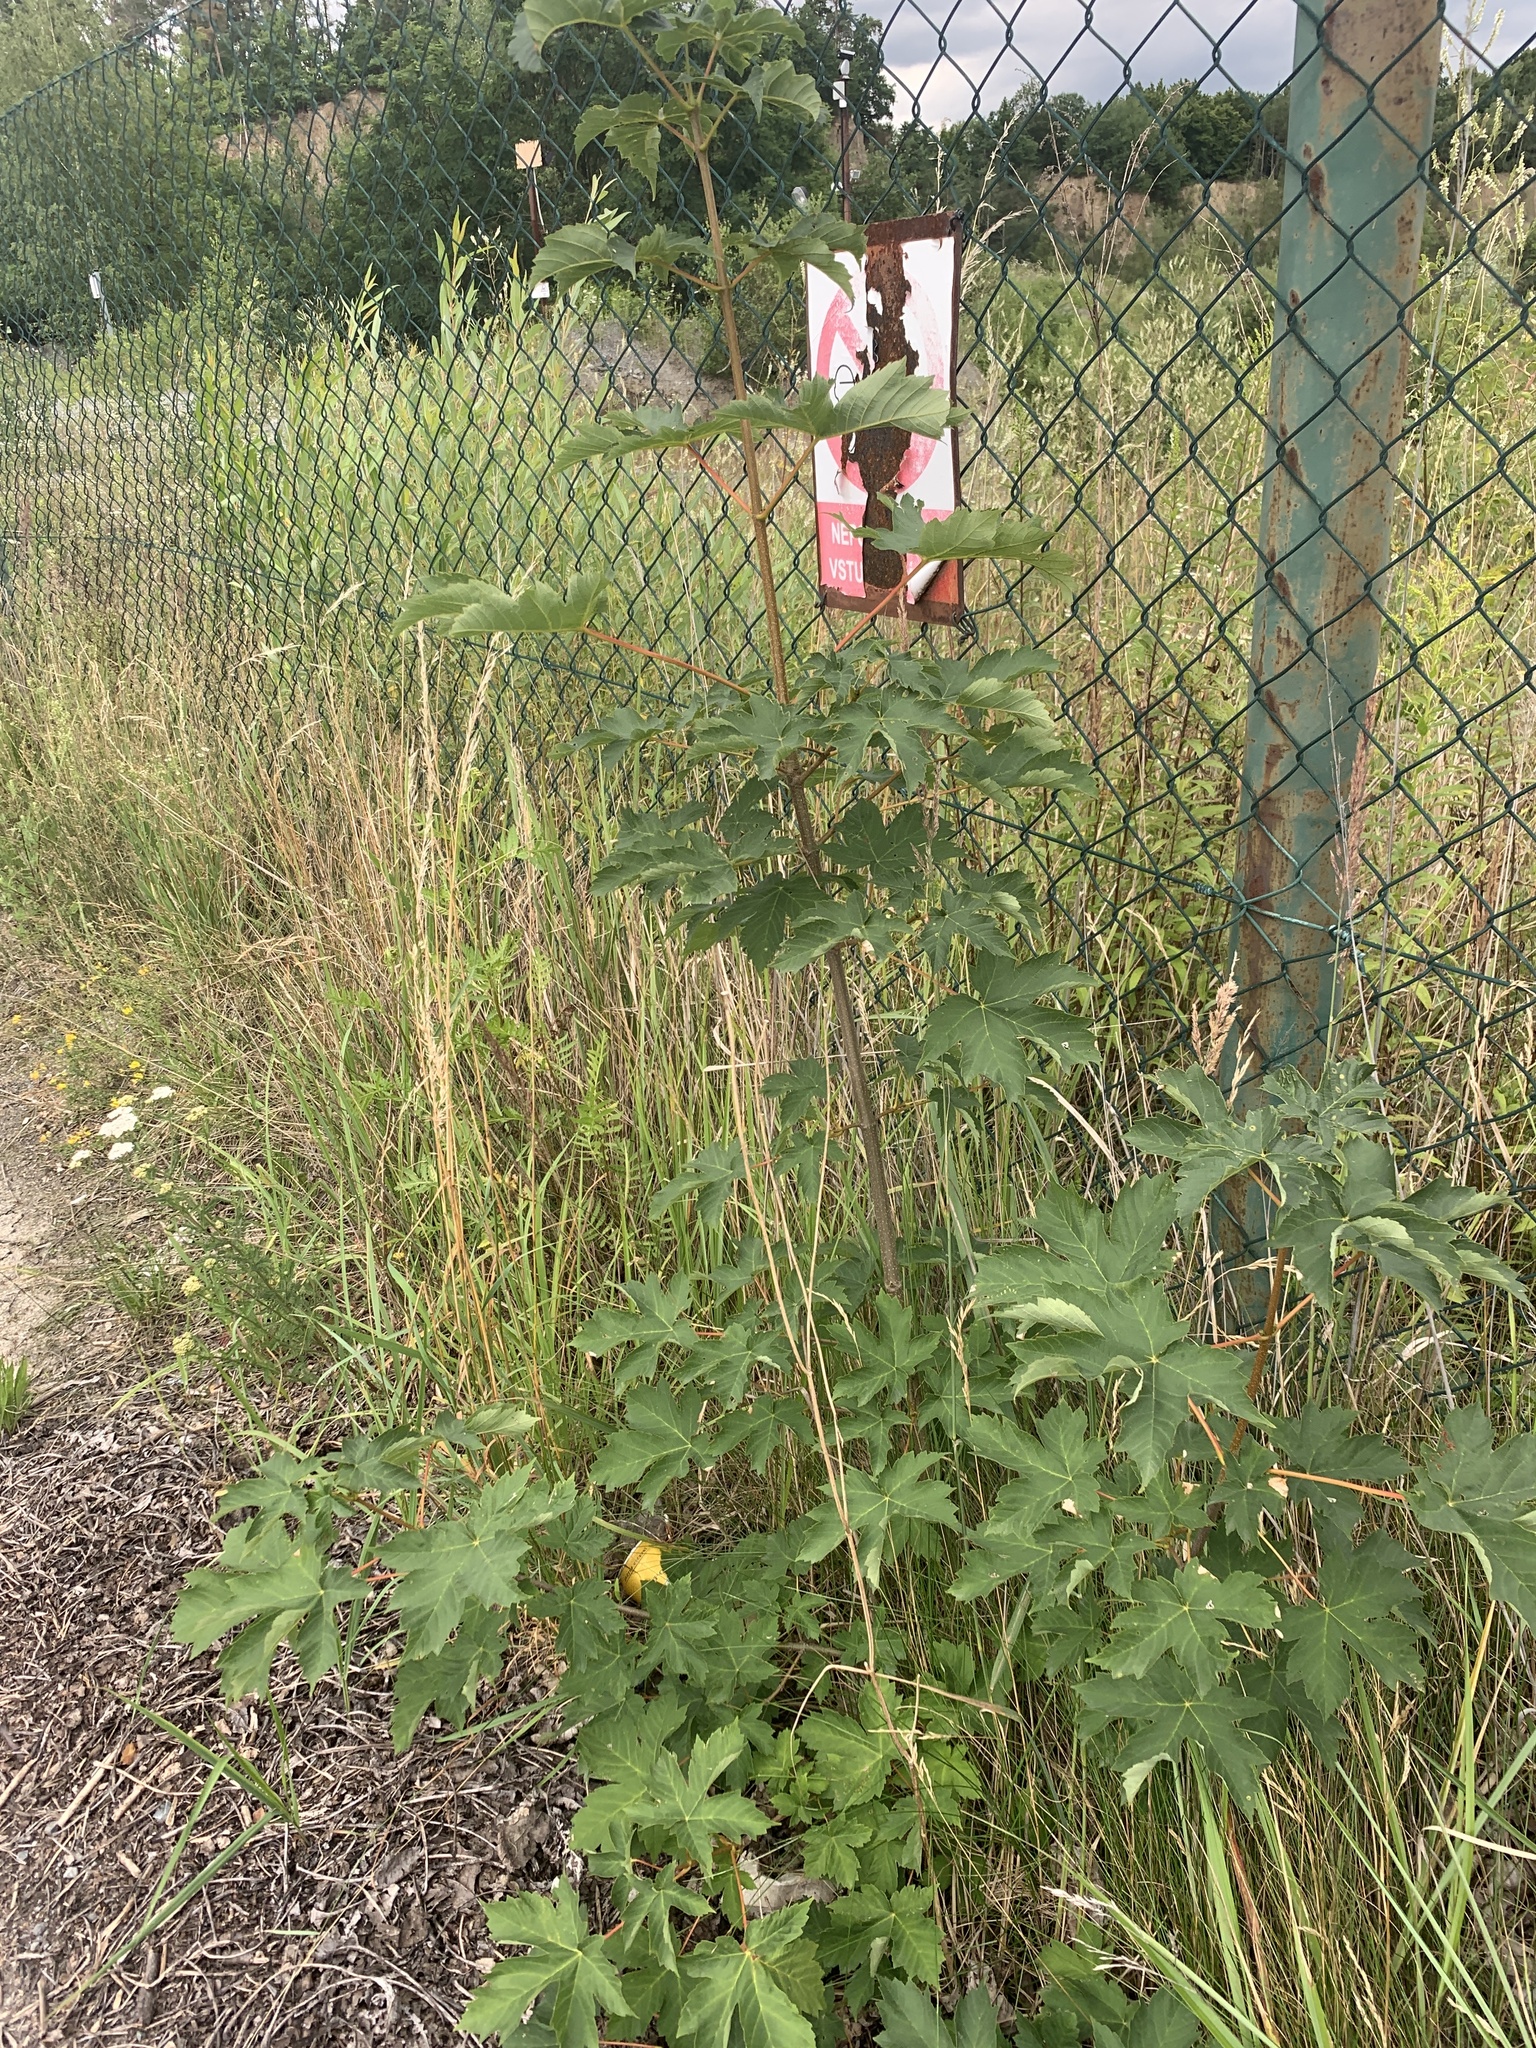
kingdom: Plantae
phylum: Tracheophyta
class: Magnoliopsida
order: Sapindales
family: Sapindaceae
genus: Acer
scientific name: Acer pseudoplatanus
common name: Sycamore
